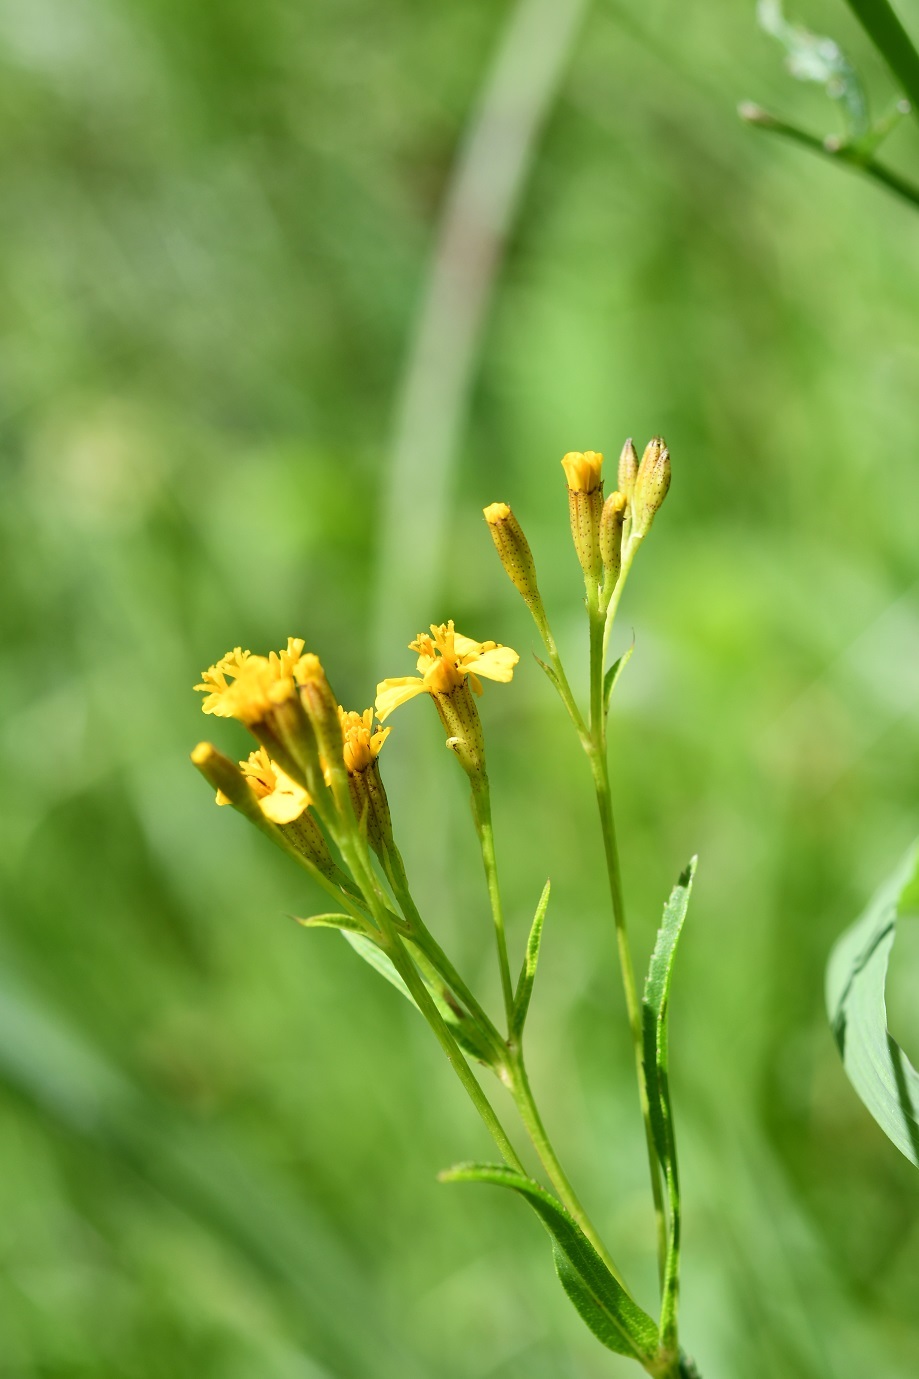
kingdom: Plantae
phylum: Tracheophyta
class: Magnoliopsida
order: Asterales
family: Asteraceae
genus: Tagetes
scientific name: Tagetes lucida
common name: Sweetscented marigold
